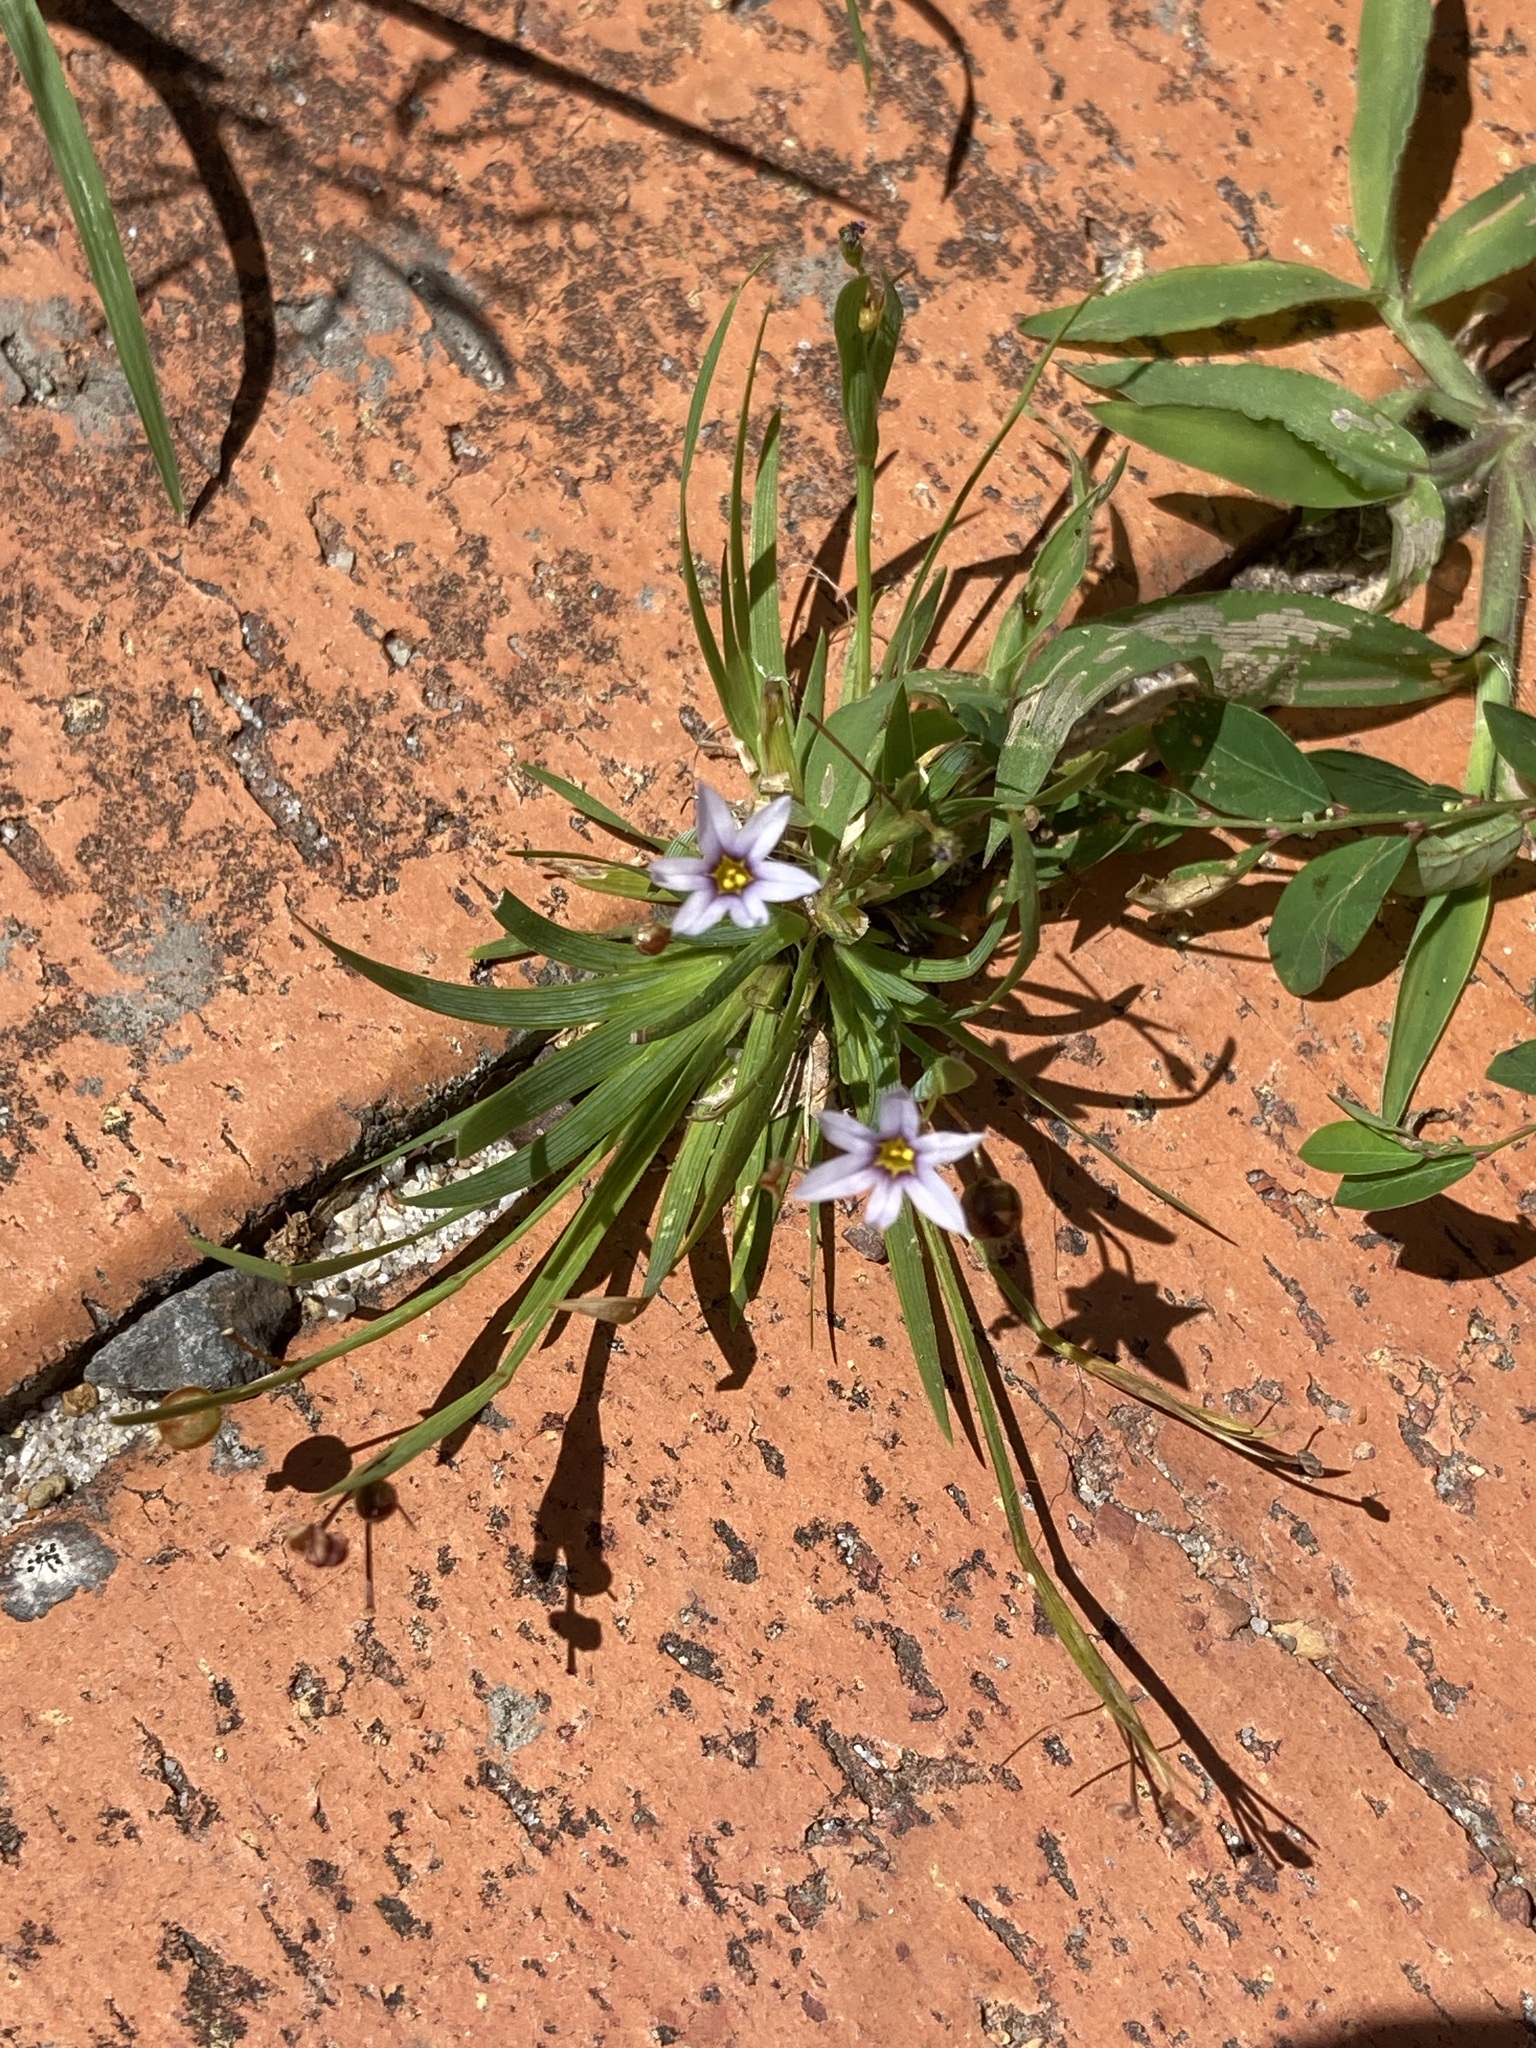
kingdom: Plantae
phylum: Tracheophyta
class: Liliopsida
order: Asparagales
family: Iridaceae
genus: Sisyrinchium
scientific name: Sisyrinchium micranthum
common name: Bermuda pigroot
